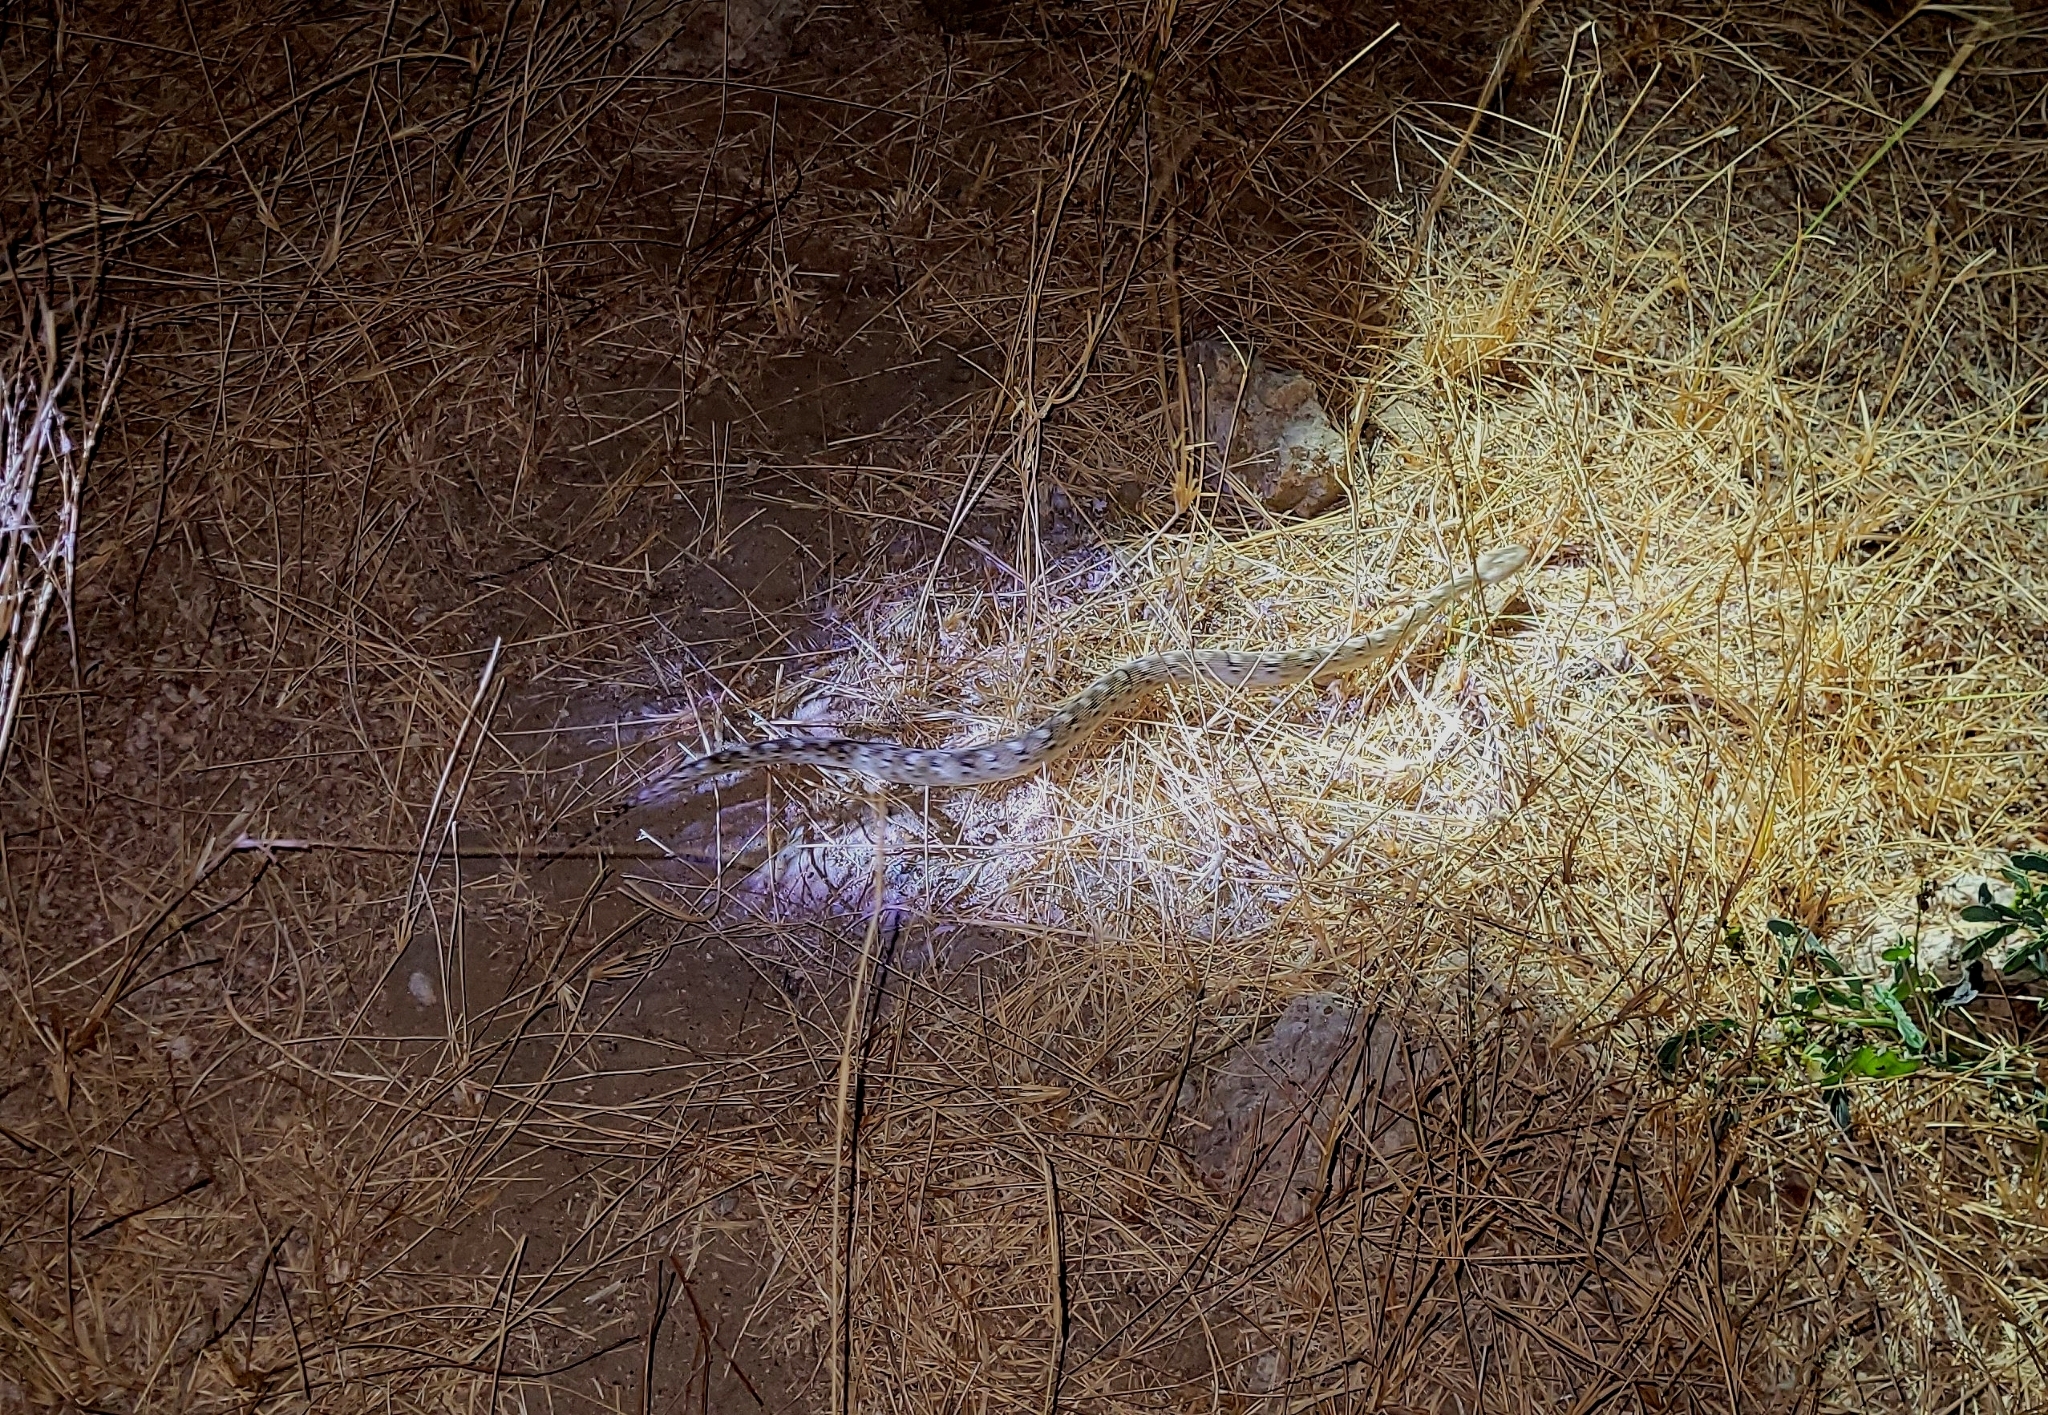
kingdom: Animalia
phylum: Chordata
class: Squamata
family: Viperidae
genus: Echis
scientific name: Echis carinatus
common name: Saw-scaled viper
